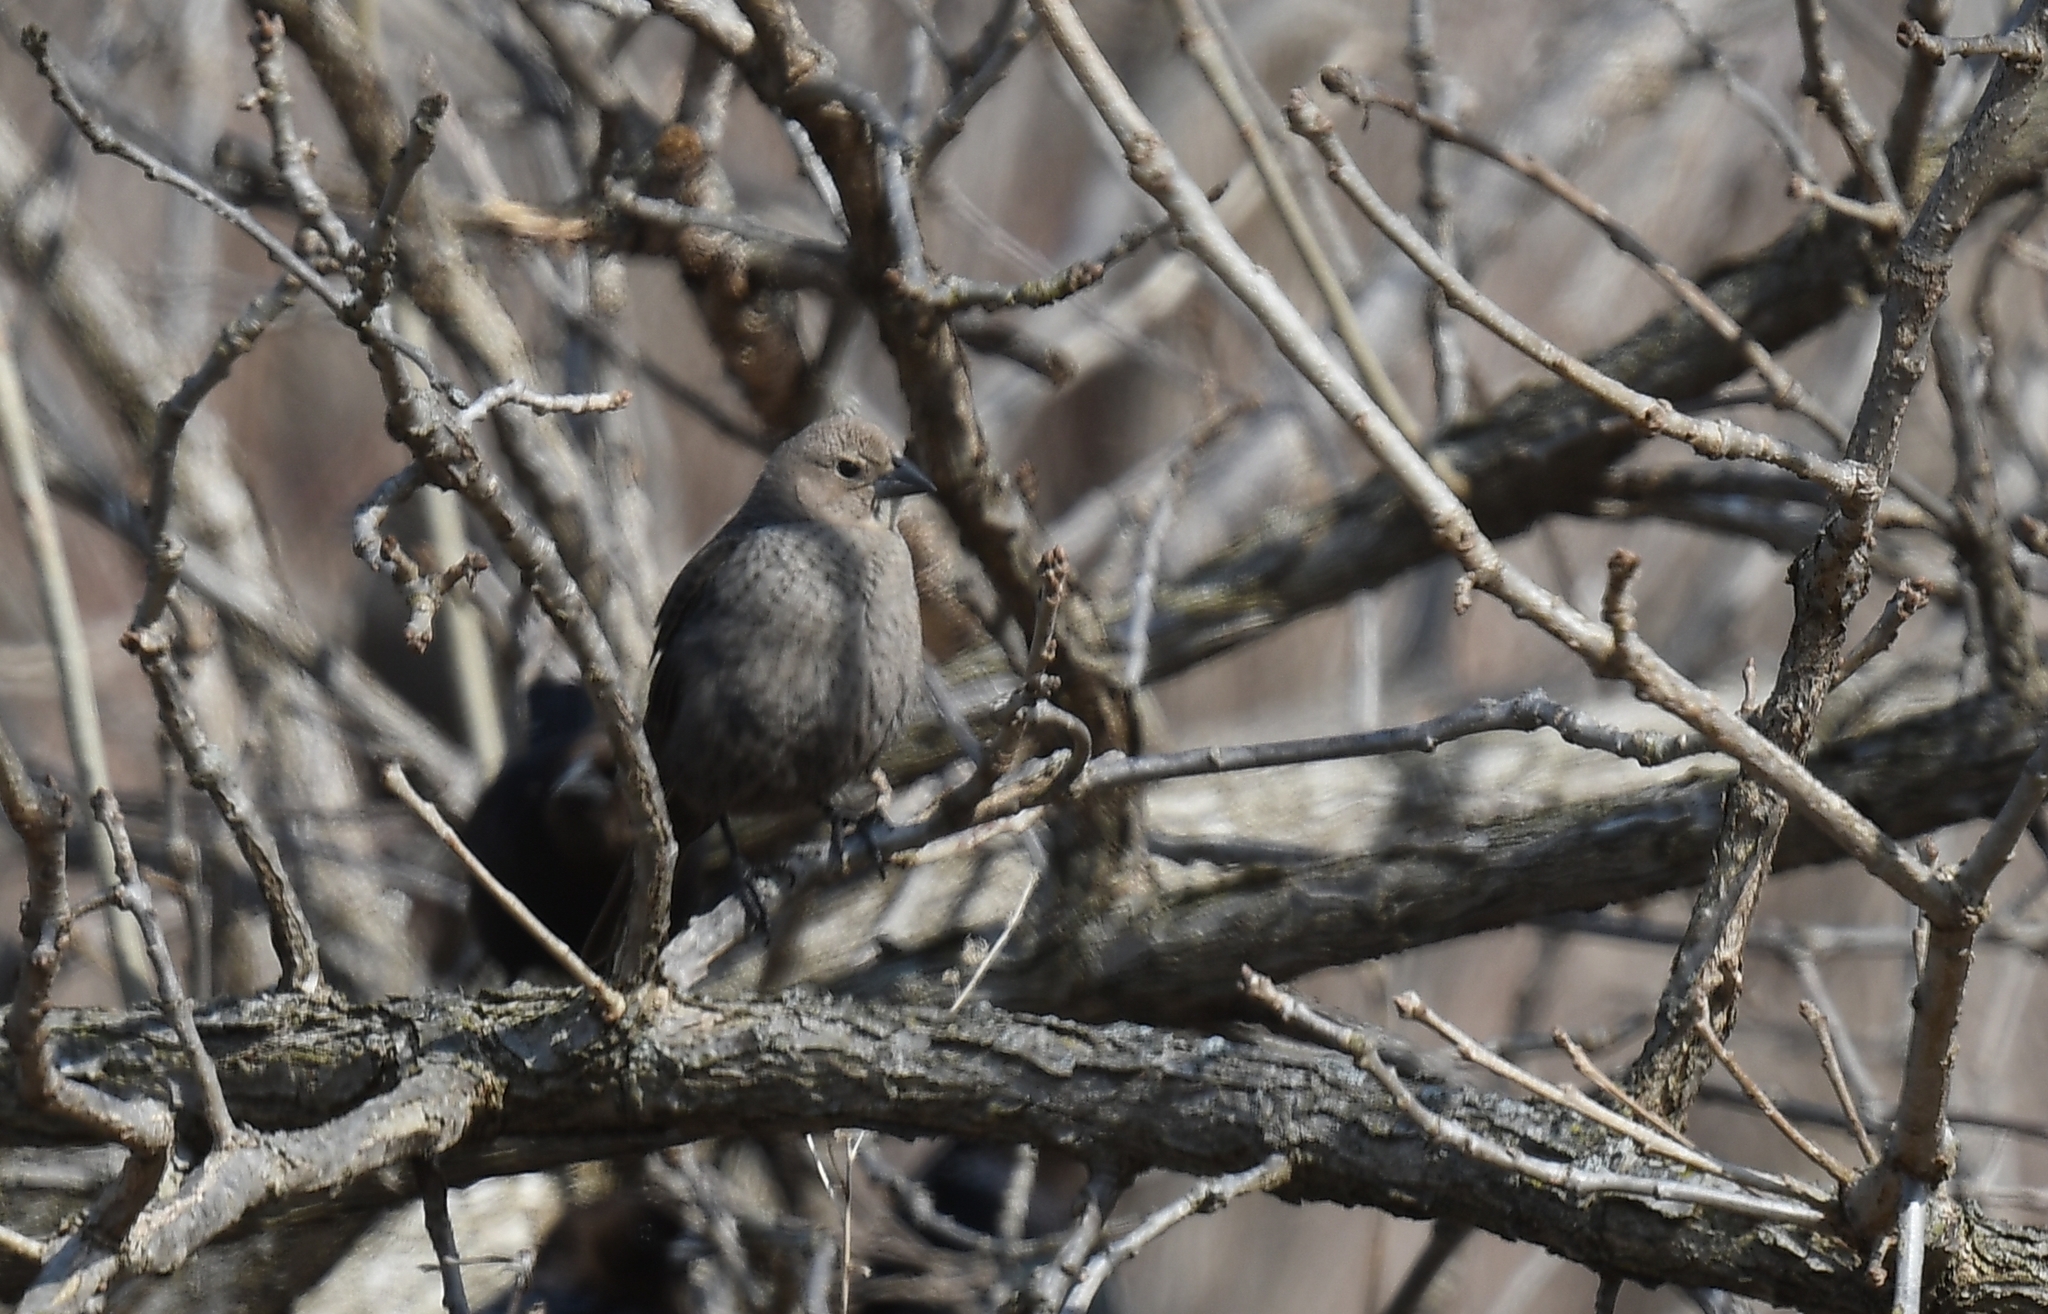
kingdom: Animalia
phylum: Chordata
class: Aves
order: Passeriformes
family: Icteridae
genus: Molothrus
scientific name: Molothrus ater
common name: Brown-headed cowbird
